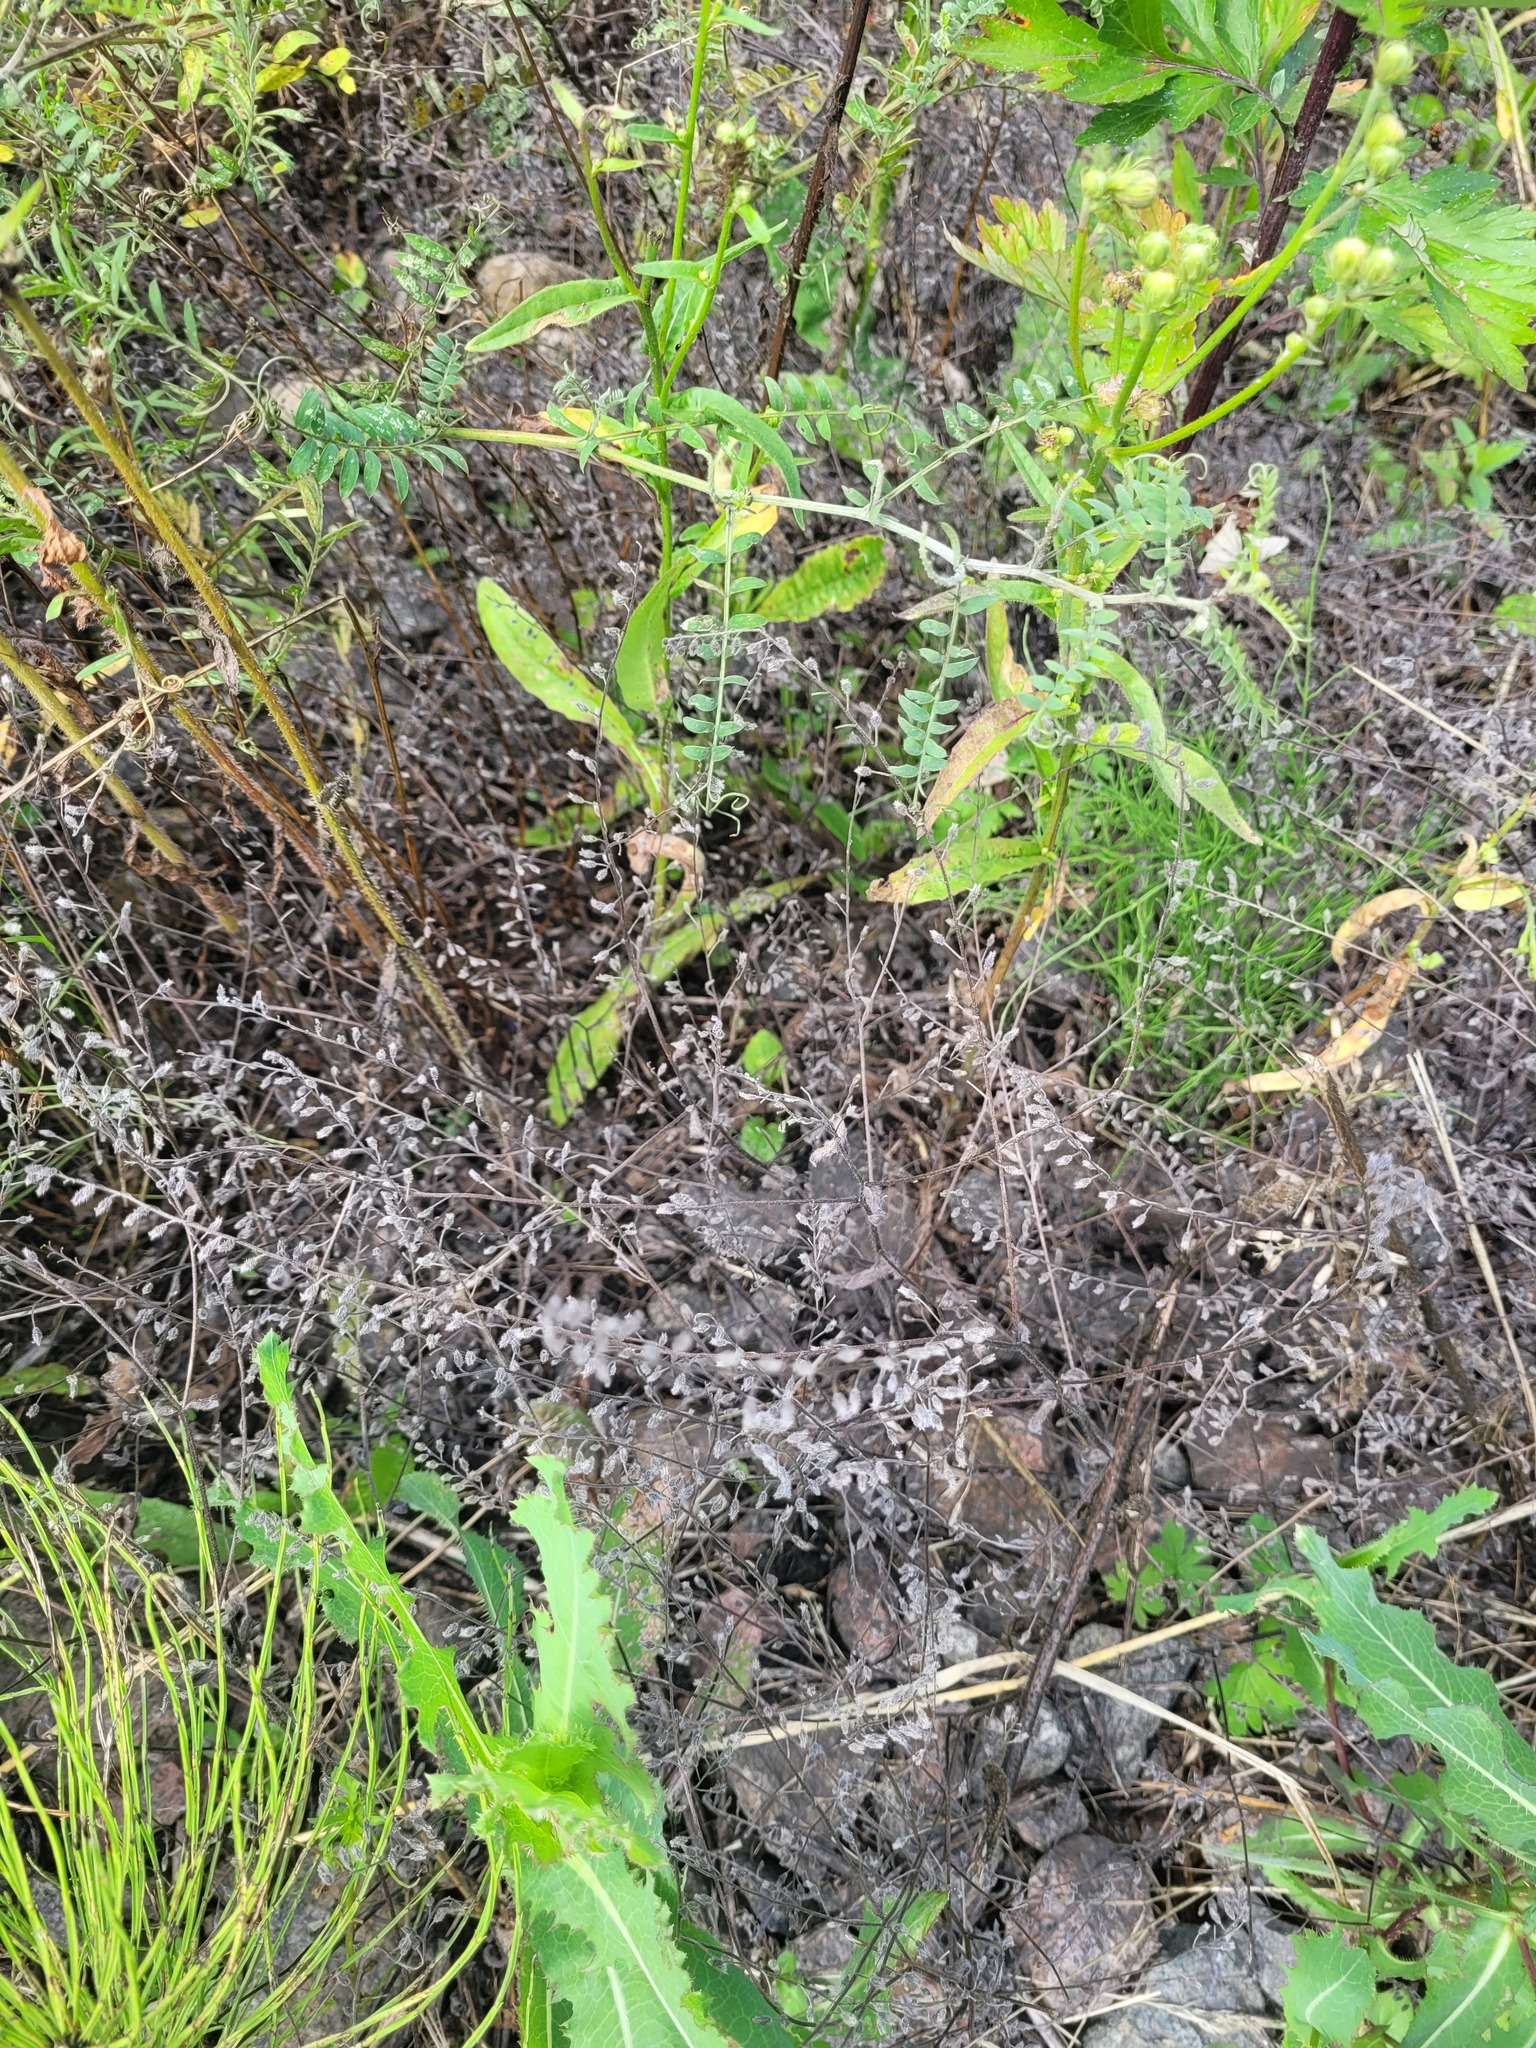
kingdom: Plantae
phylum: Tracheophyta
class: Magnoliopsida
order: Boraginales
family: Boraginaceae
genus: Myosotis
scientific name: Myosotis arvensis
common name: Field forget-me-not
